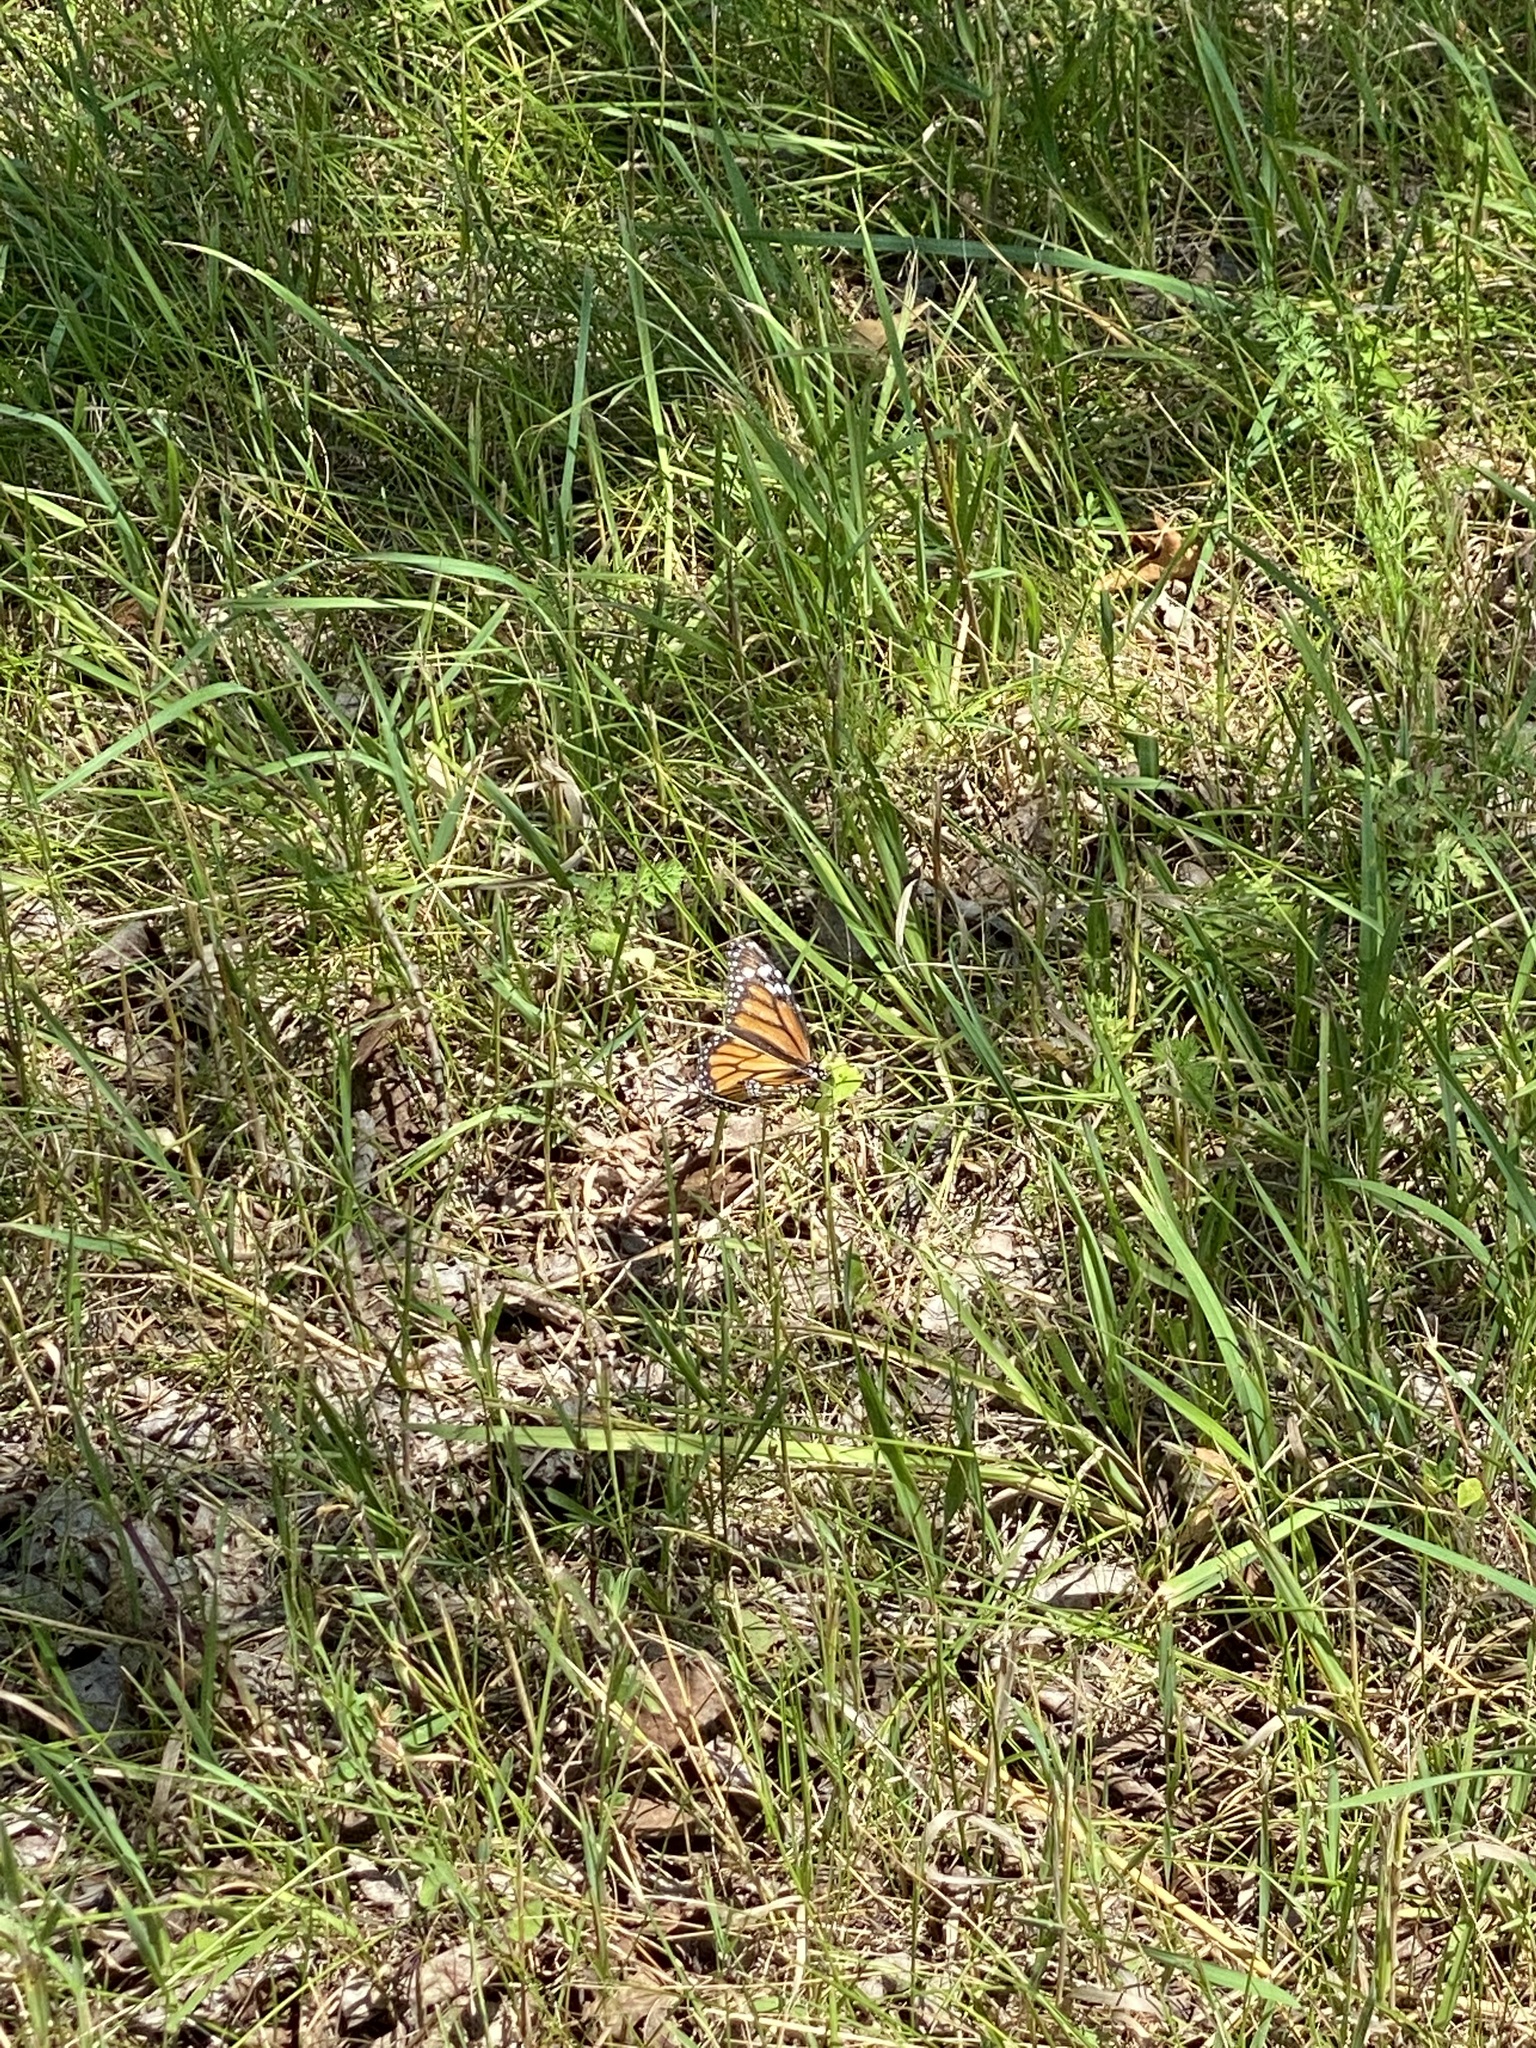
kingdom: Animalia
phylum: Arthropoda
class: Insecta
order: Lepidoptera
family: Nymphalidae
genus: Danaus
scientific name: Danaus plexippus
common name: Monarch
